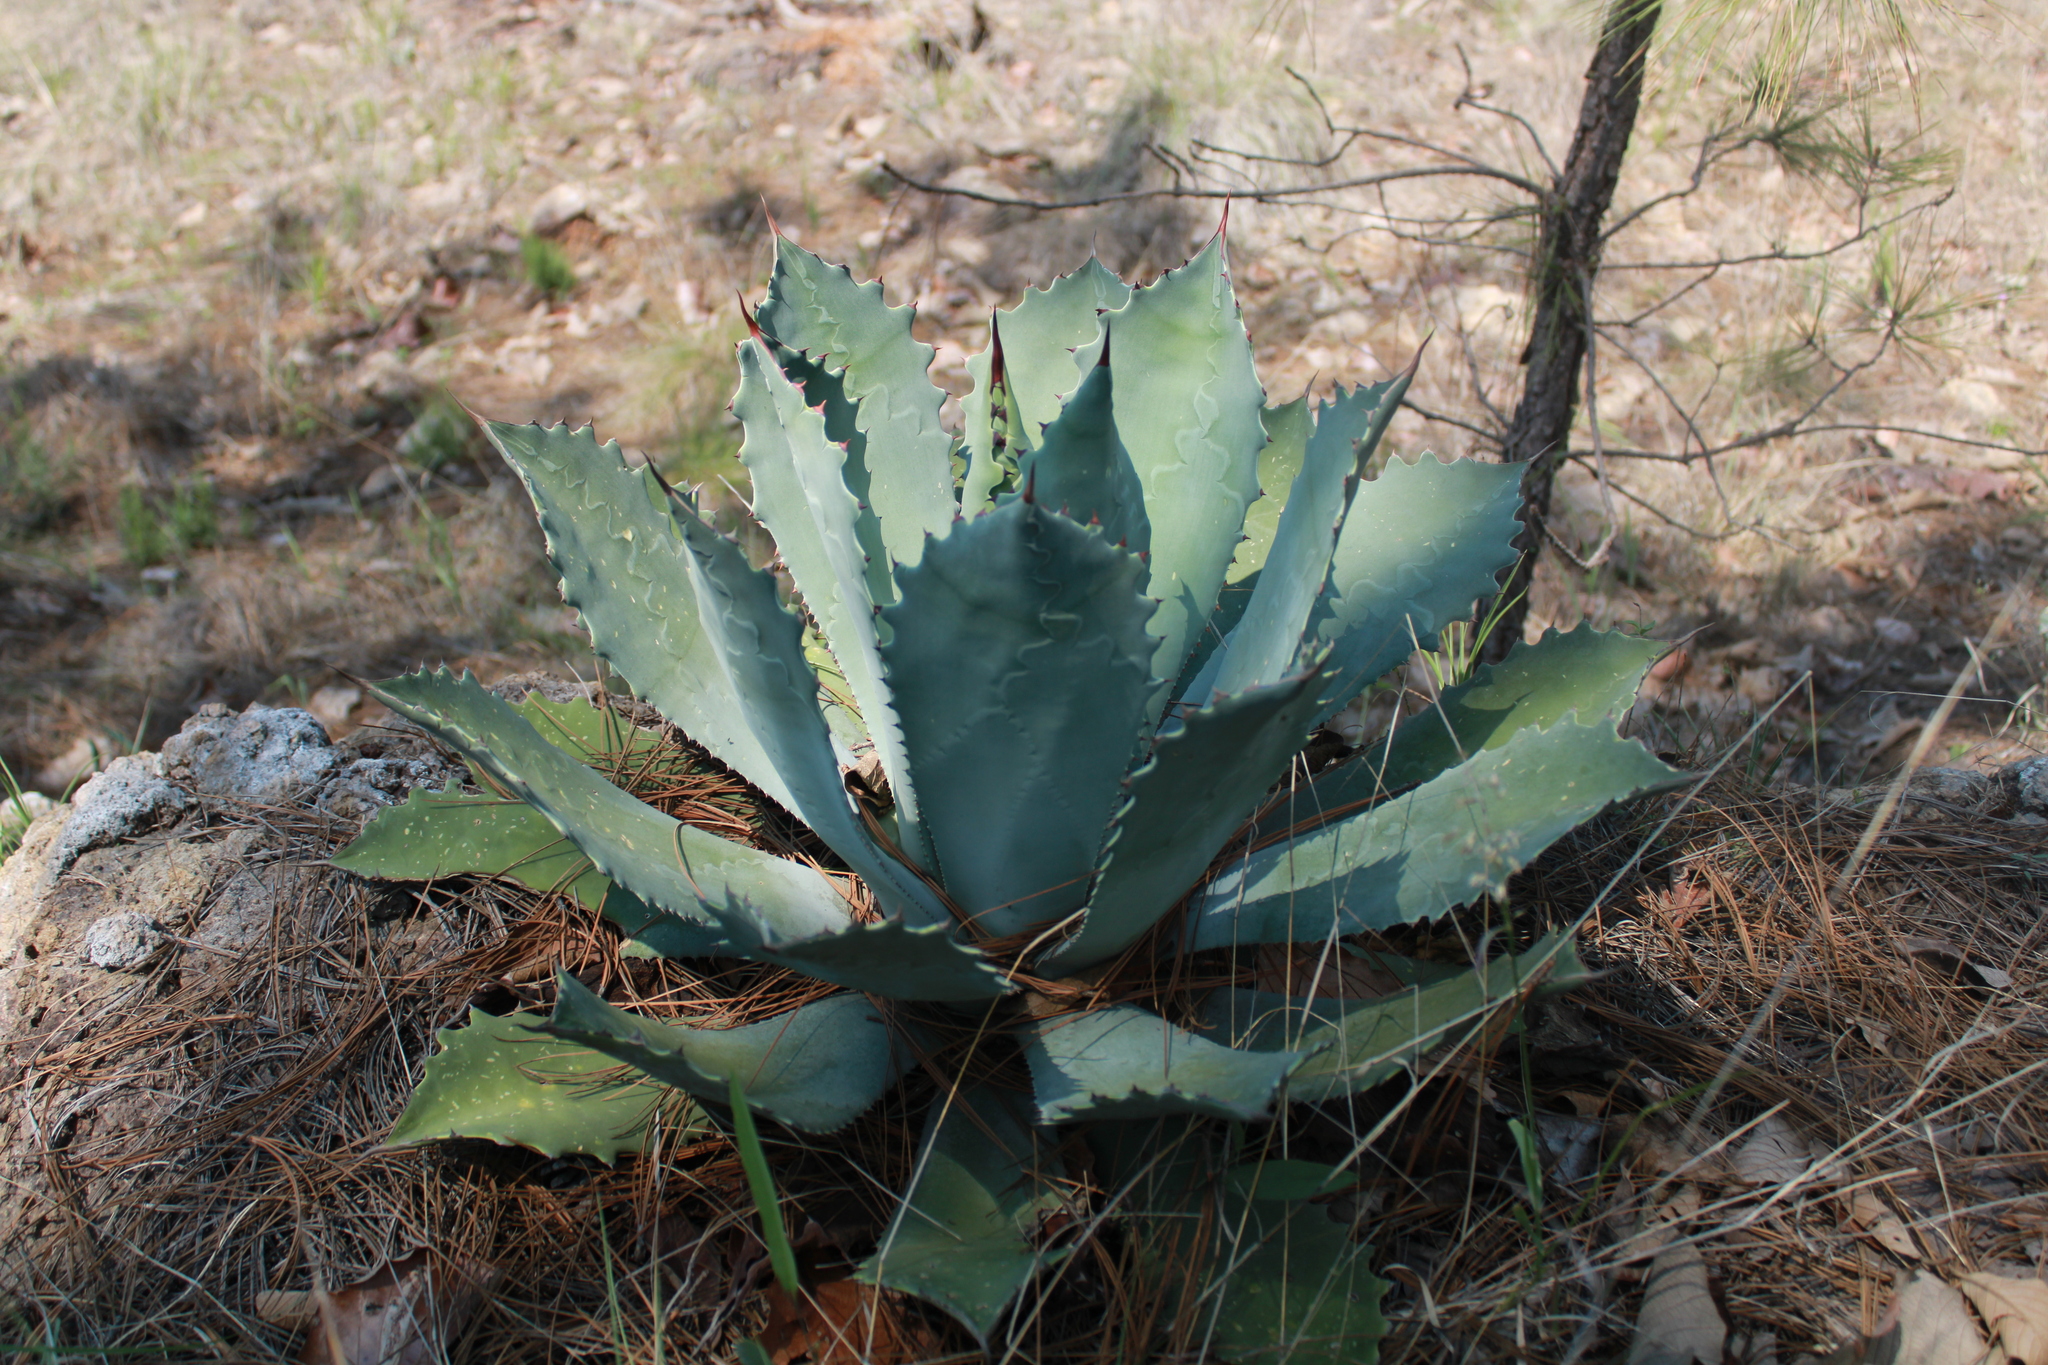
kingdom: Plantae
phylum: Tracheophyta
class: Liliopsida
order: Asparagales
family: Asparagaceae
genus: Agave
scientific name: Agave guadalajarana
